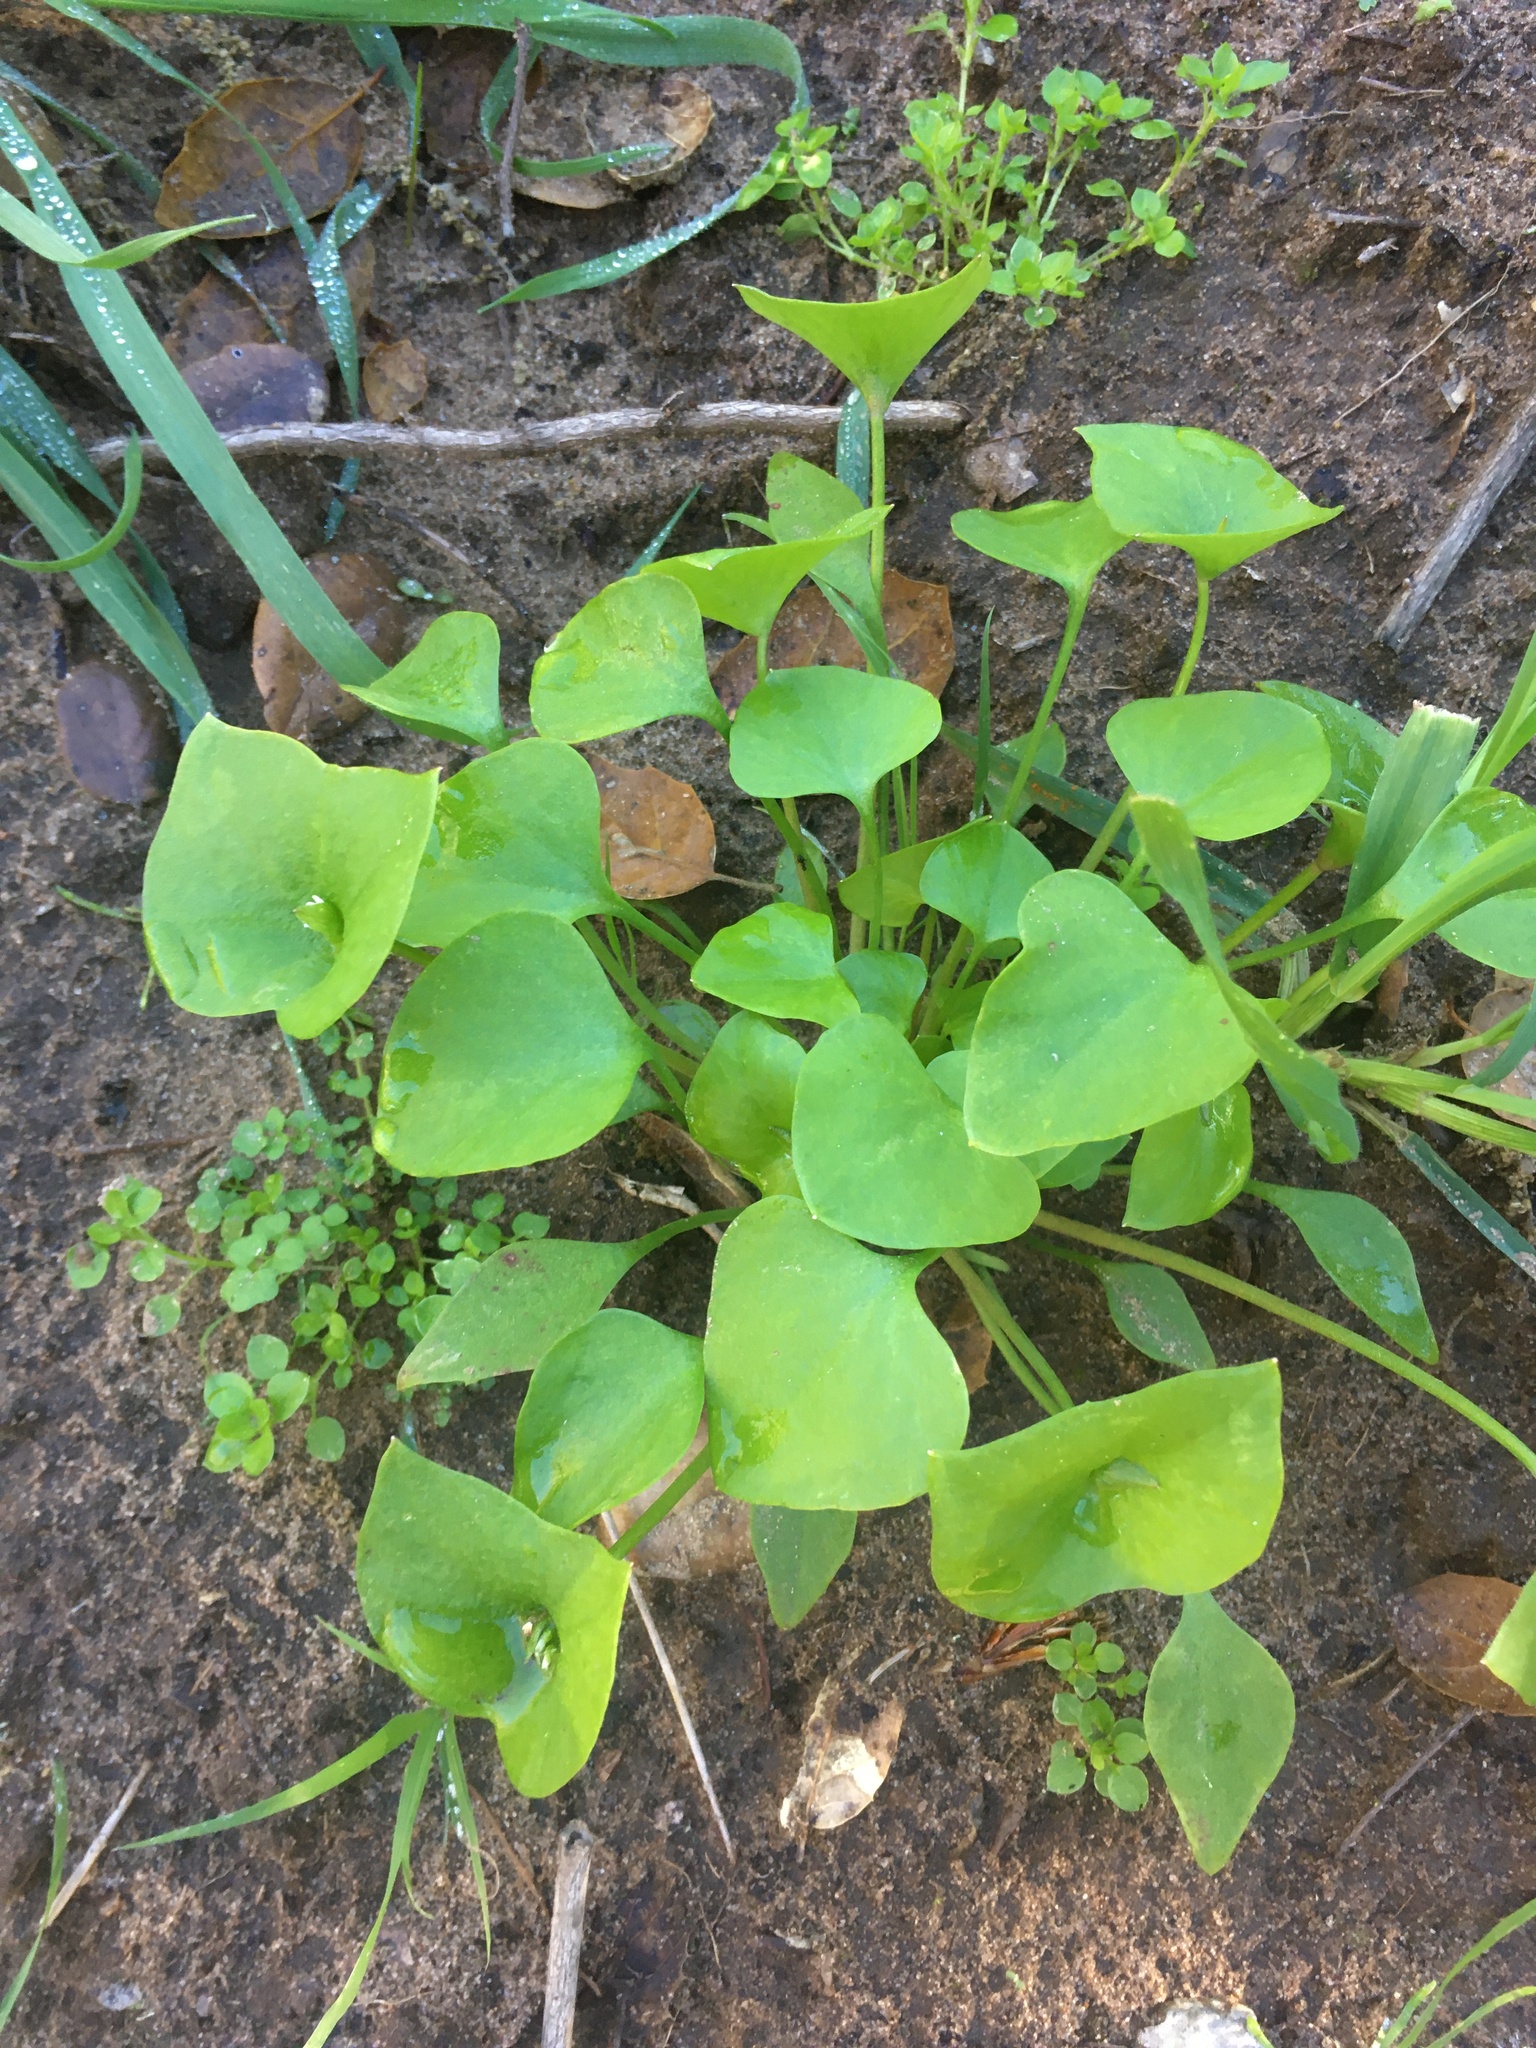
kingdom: Plantae
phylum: Tracheophyta
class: Magnoliopsida
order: Caryophyllales
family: Montiaceae
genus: Claytonia
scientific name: Claytonia perfoliata
